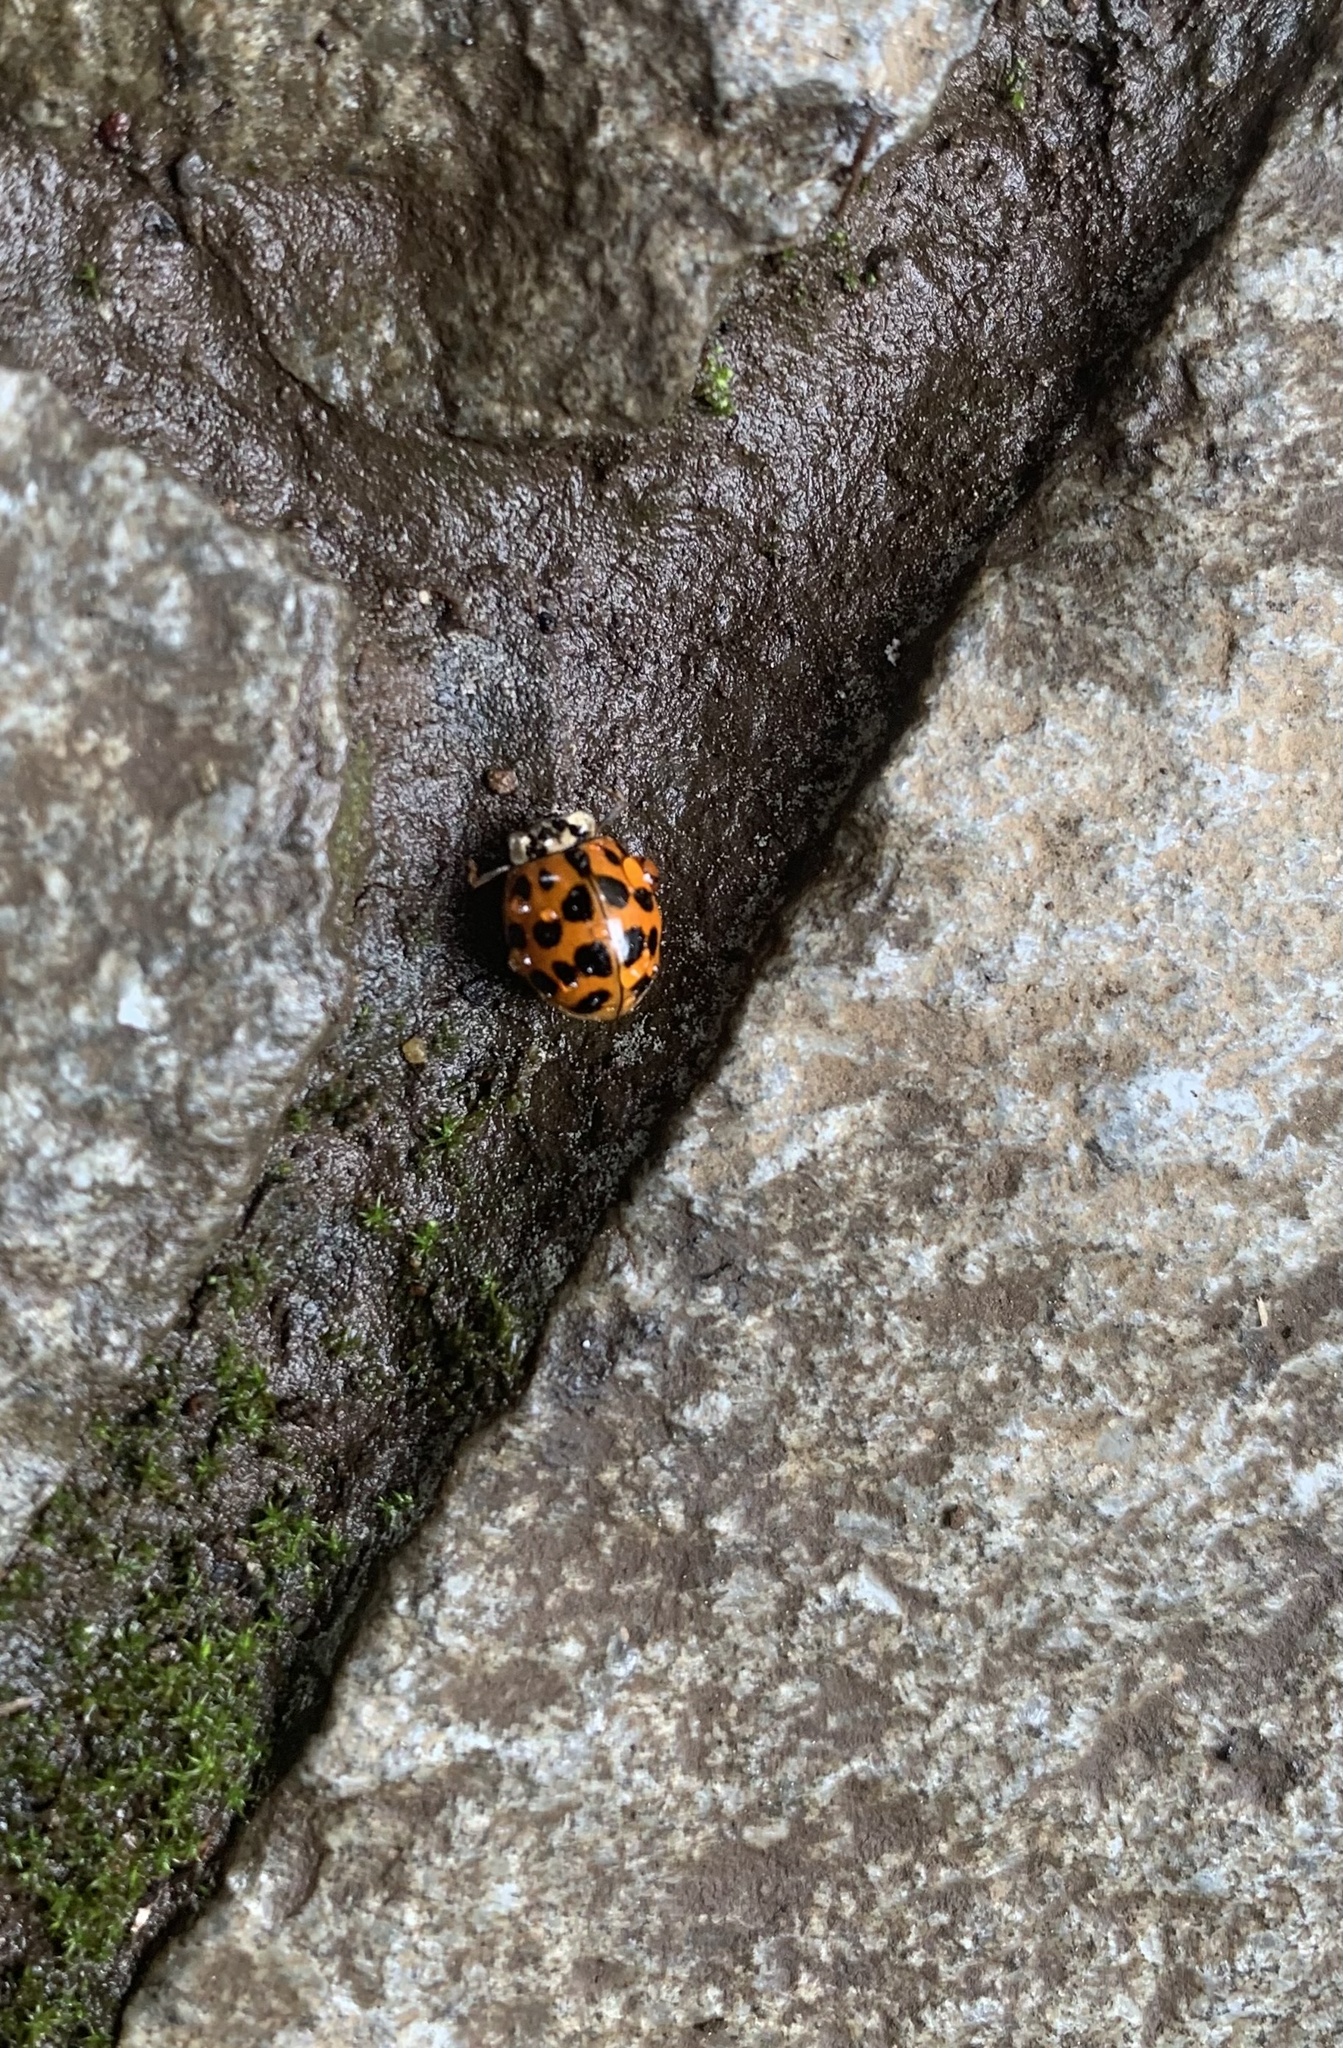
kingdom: Animalia
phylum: Arthropoda
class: Insecta
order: Coleoptera
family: Coccinellidae
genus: Harmonia
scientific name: Harmonia axyridis
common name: Harlequin ladybird
